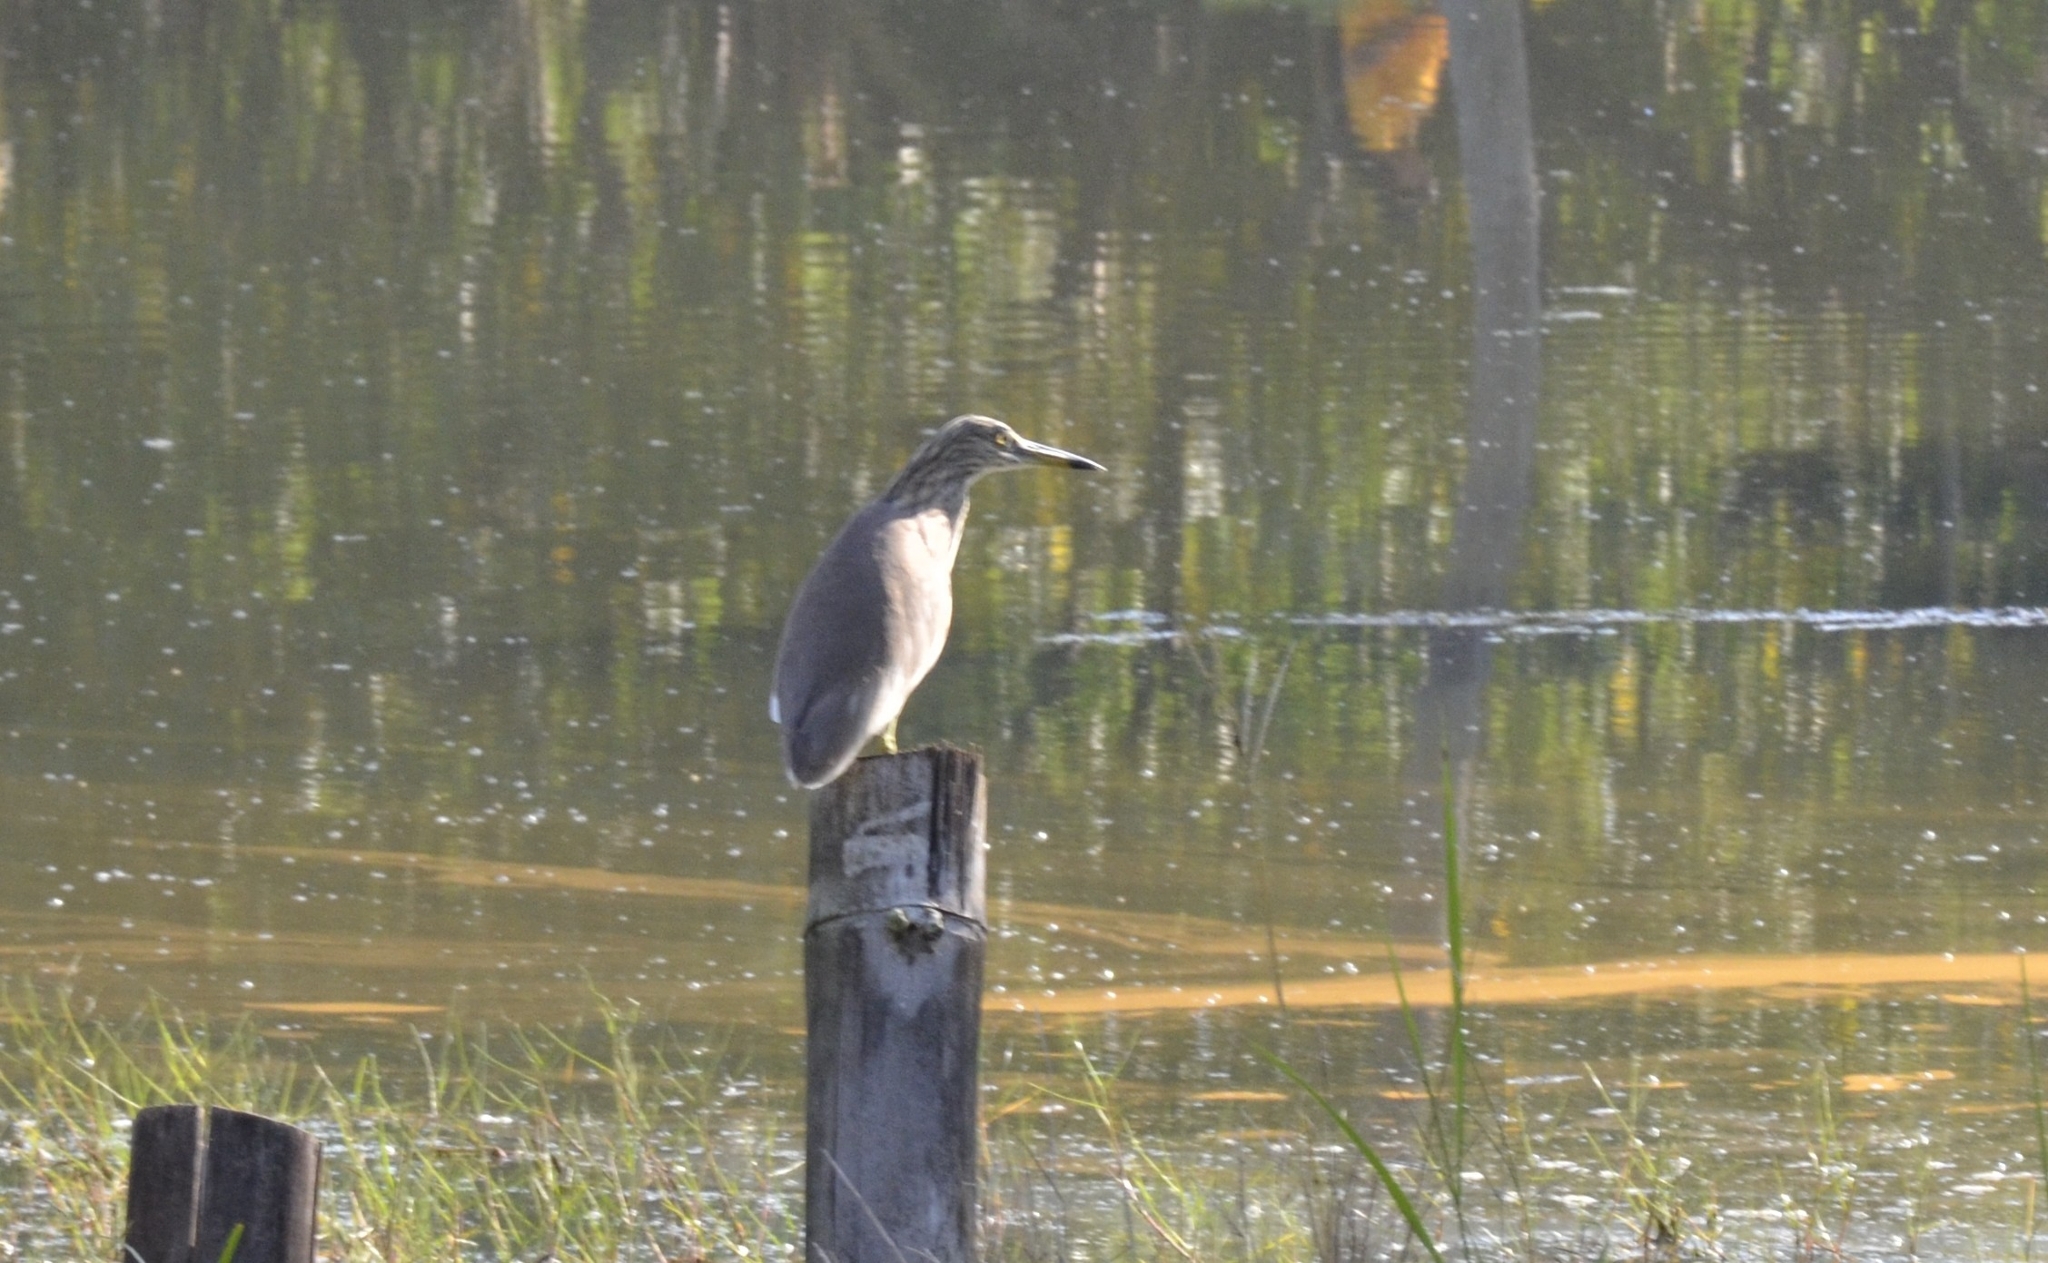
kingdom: Animalia
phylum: Chordata
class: Aves
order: Pelecaniformes
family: Ardeidae
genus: Ardeola
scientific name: Ardeola grayii
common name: Indian pond heron
